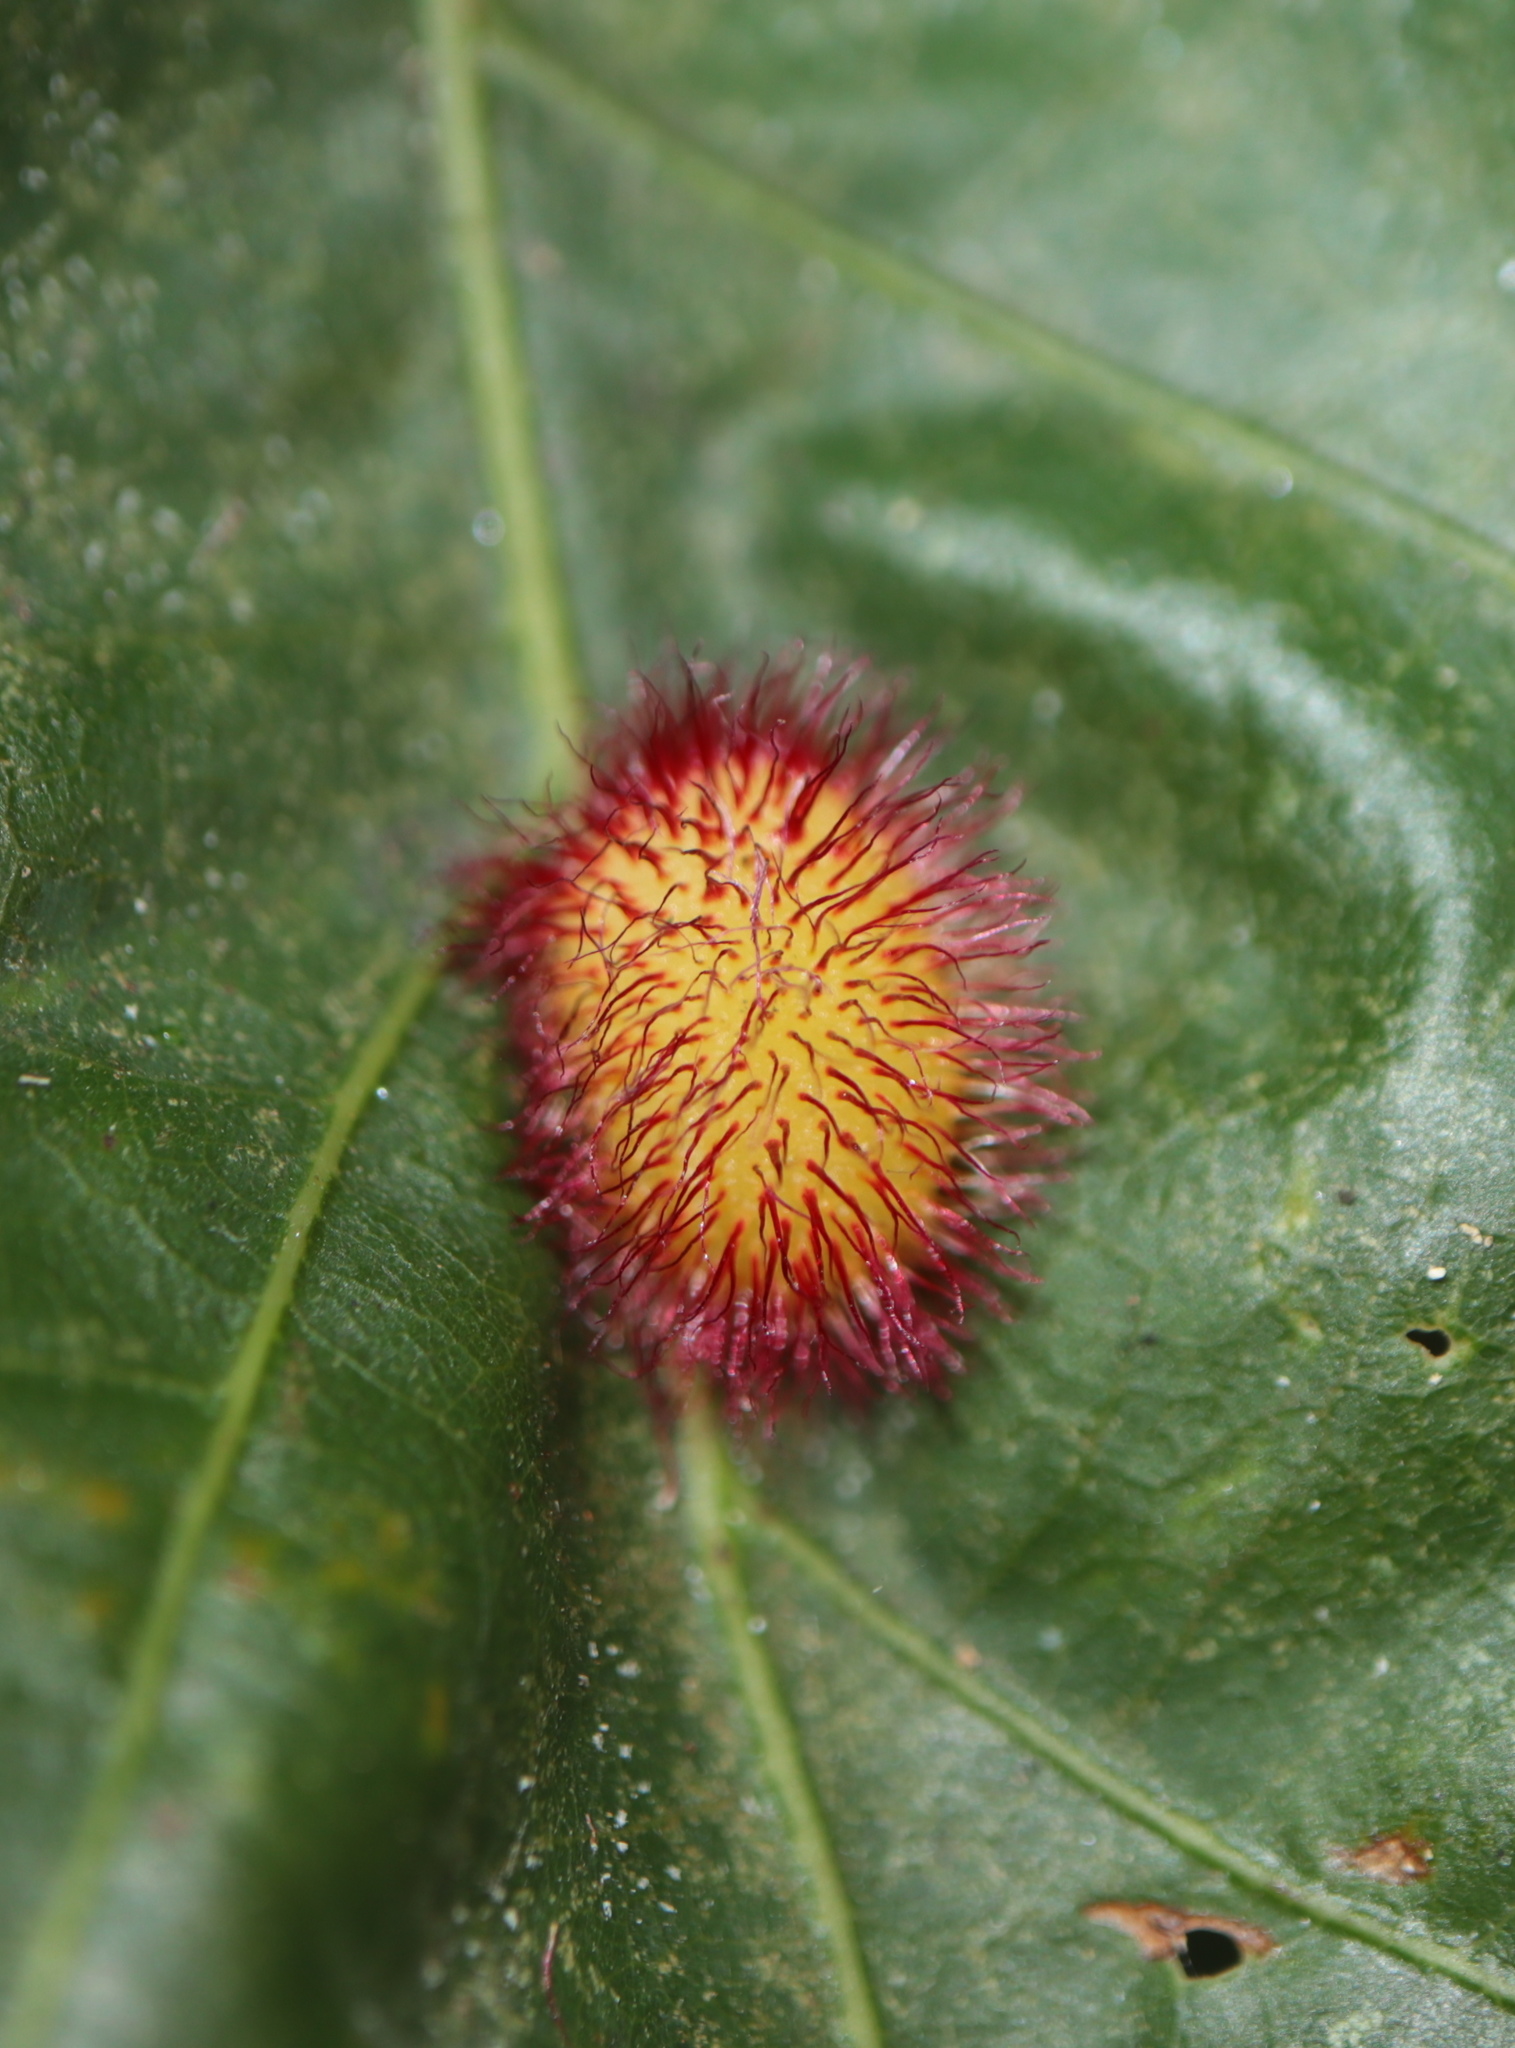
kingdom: Animalia
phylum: Arthropoda
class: Insecta
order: Hymenoptera
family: Cynipidae
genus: Acraspis
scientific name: Acraspis erinacei
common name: Hedgehog gall wasp
